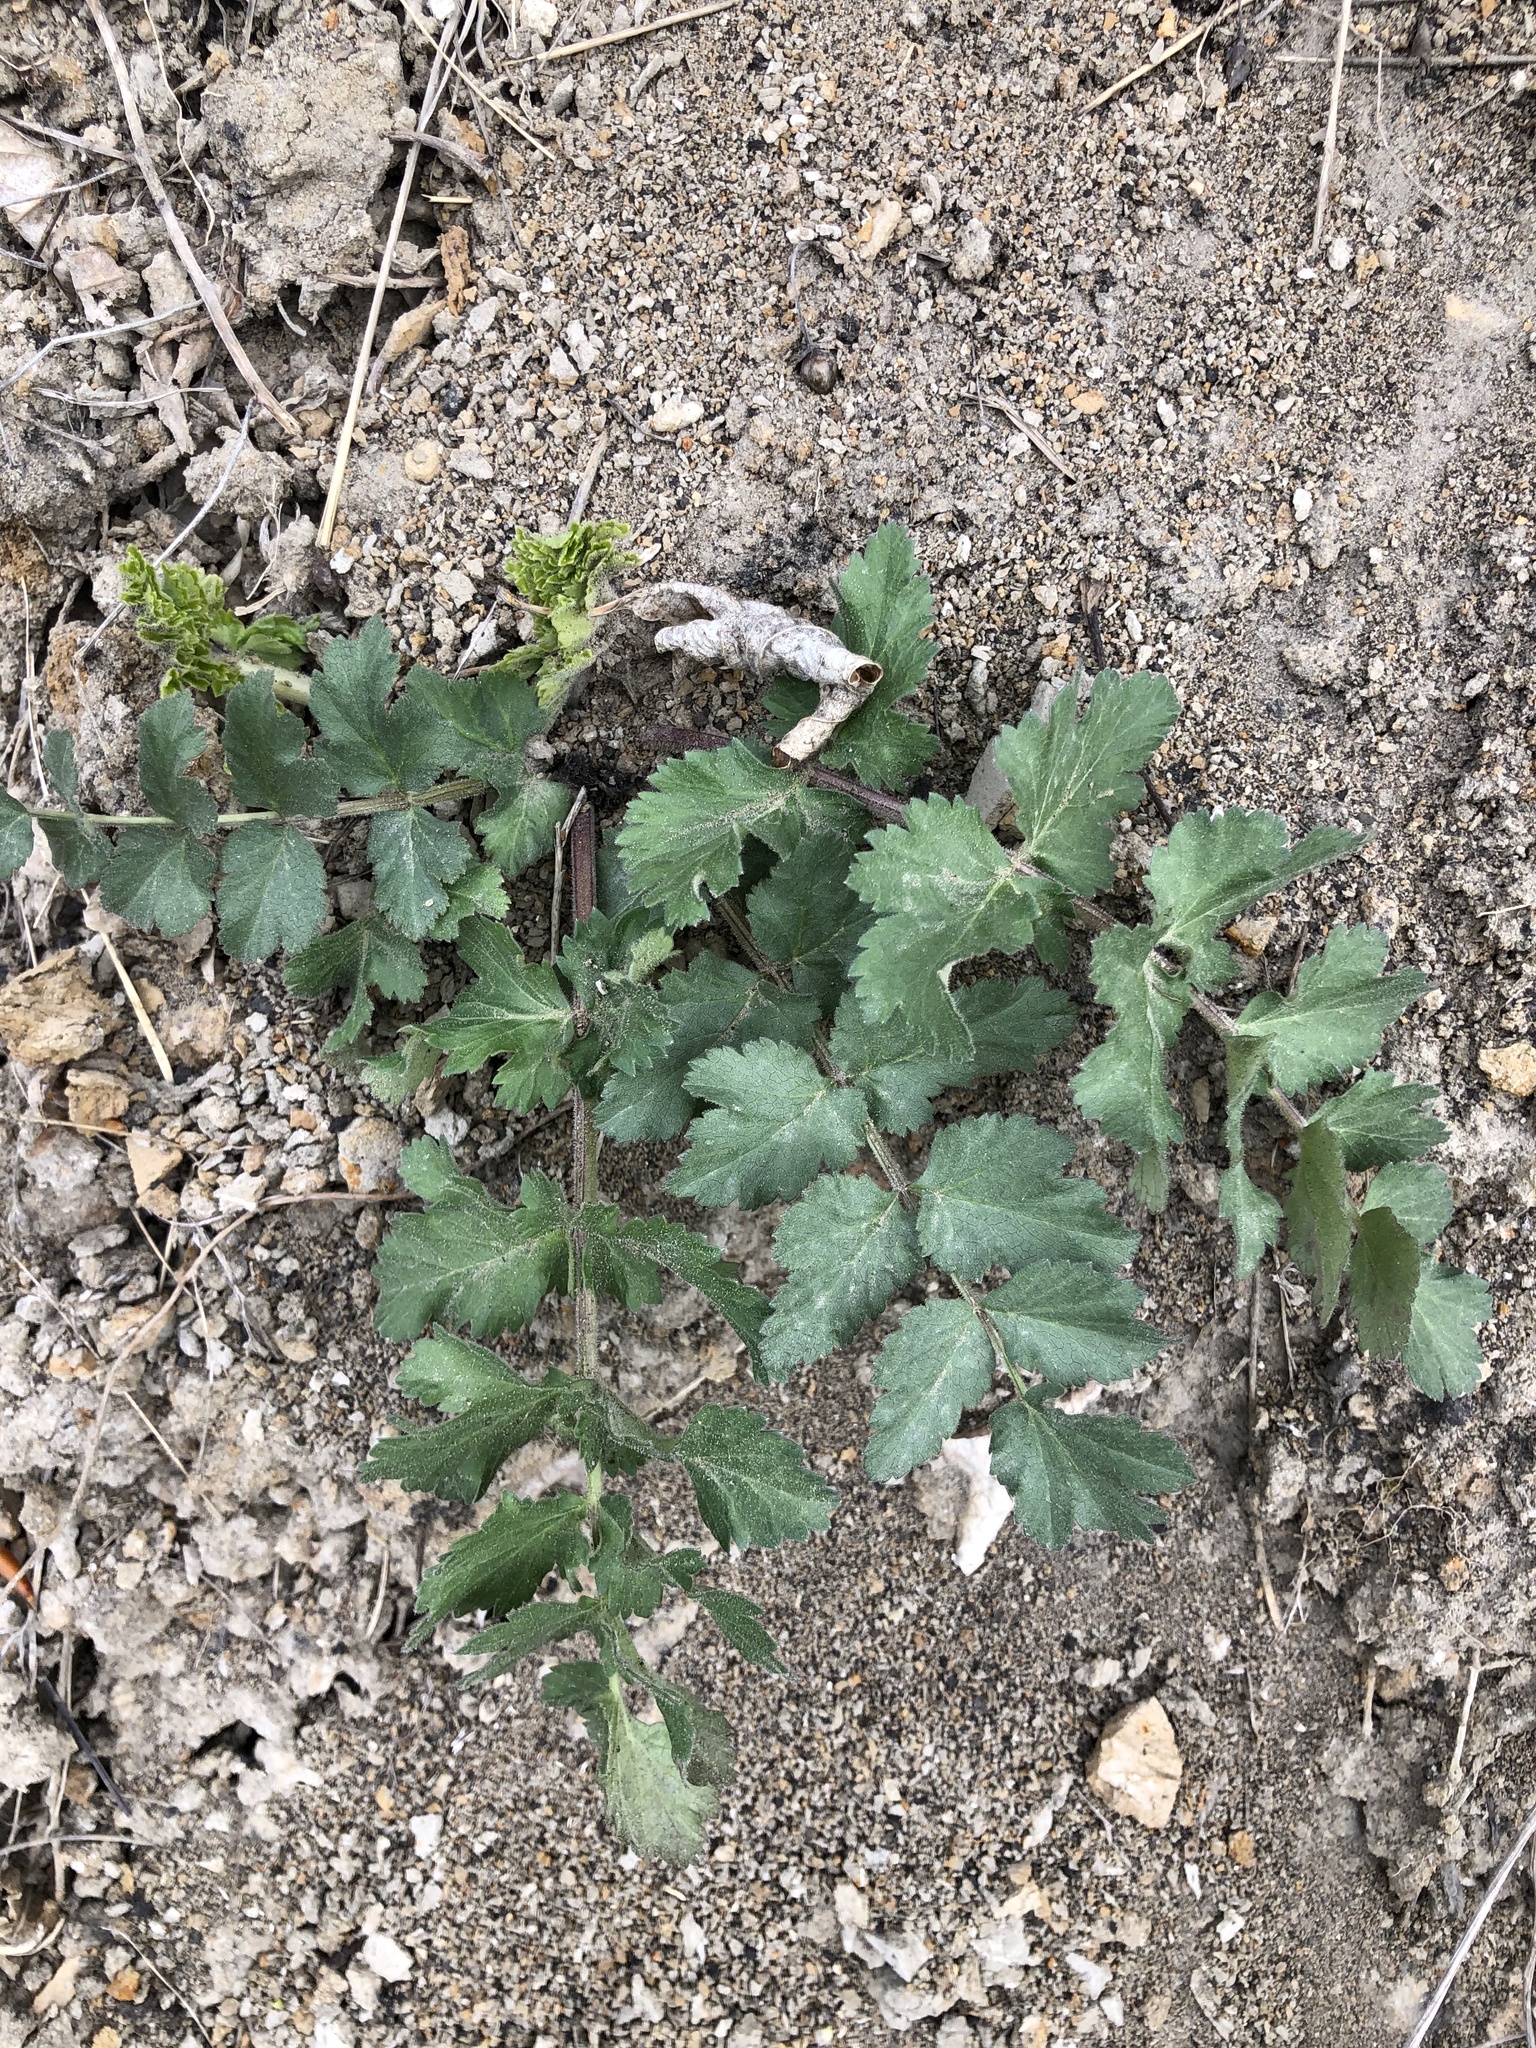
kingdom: Plantae
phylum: Tracheophyta
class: Magnoliopsida
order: Apiales
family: Apiaceae
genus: Pimpinella
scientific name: Pimpinella saxifraga
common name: Burnet-saxifrage
